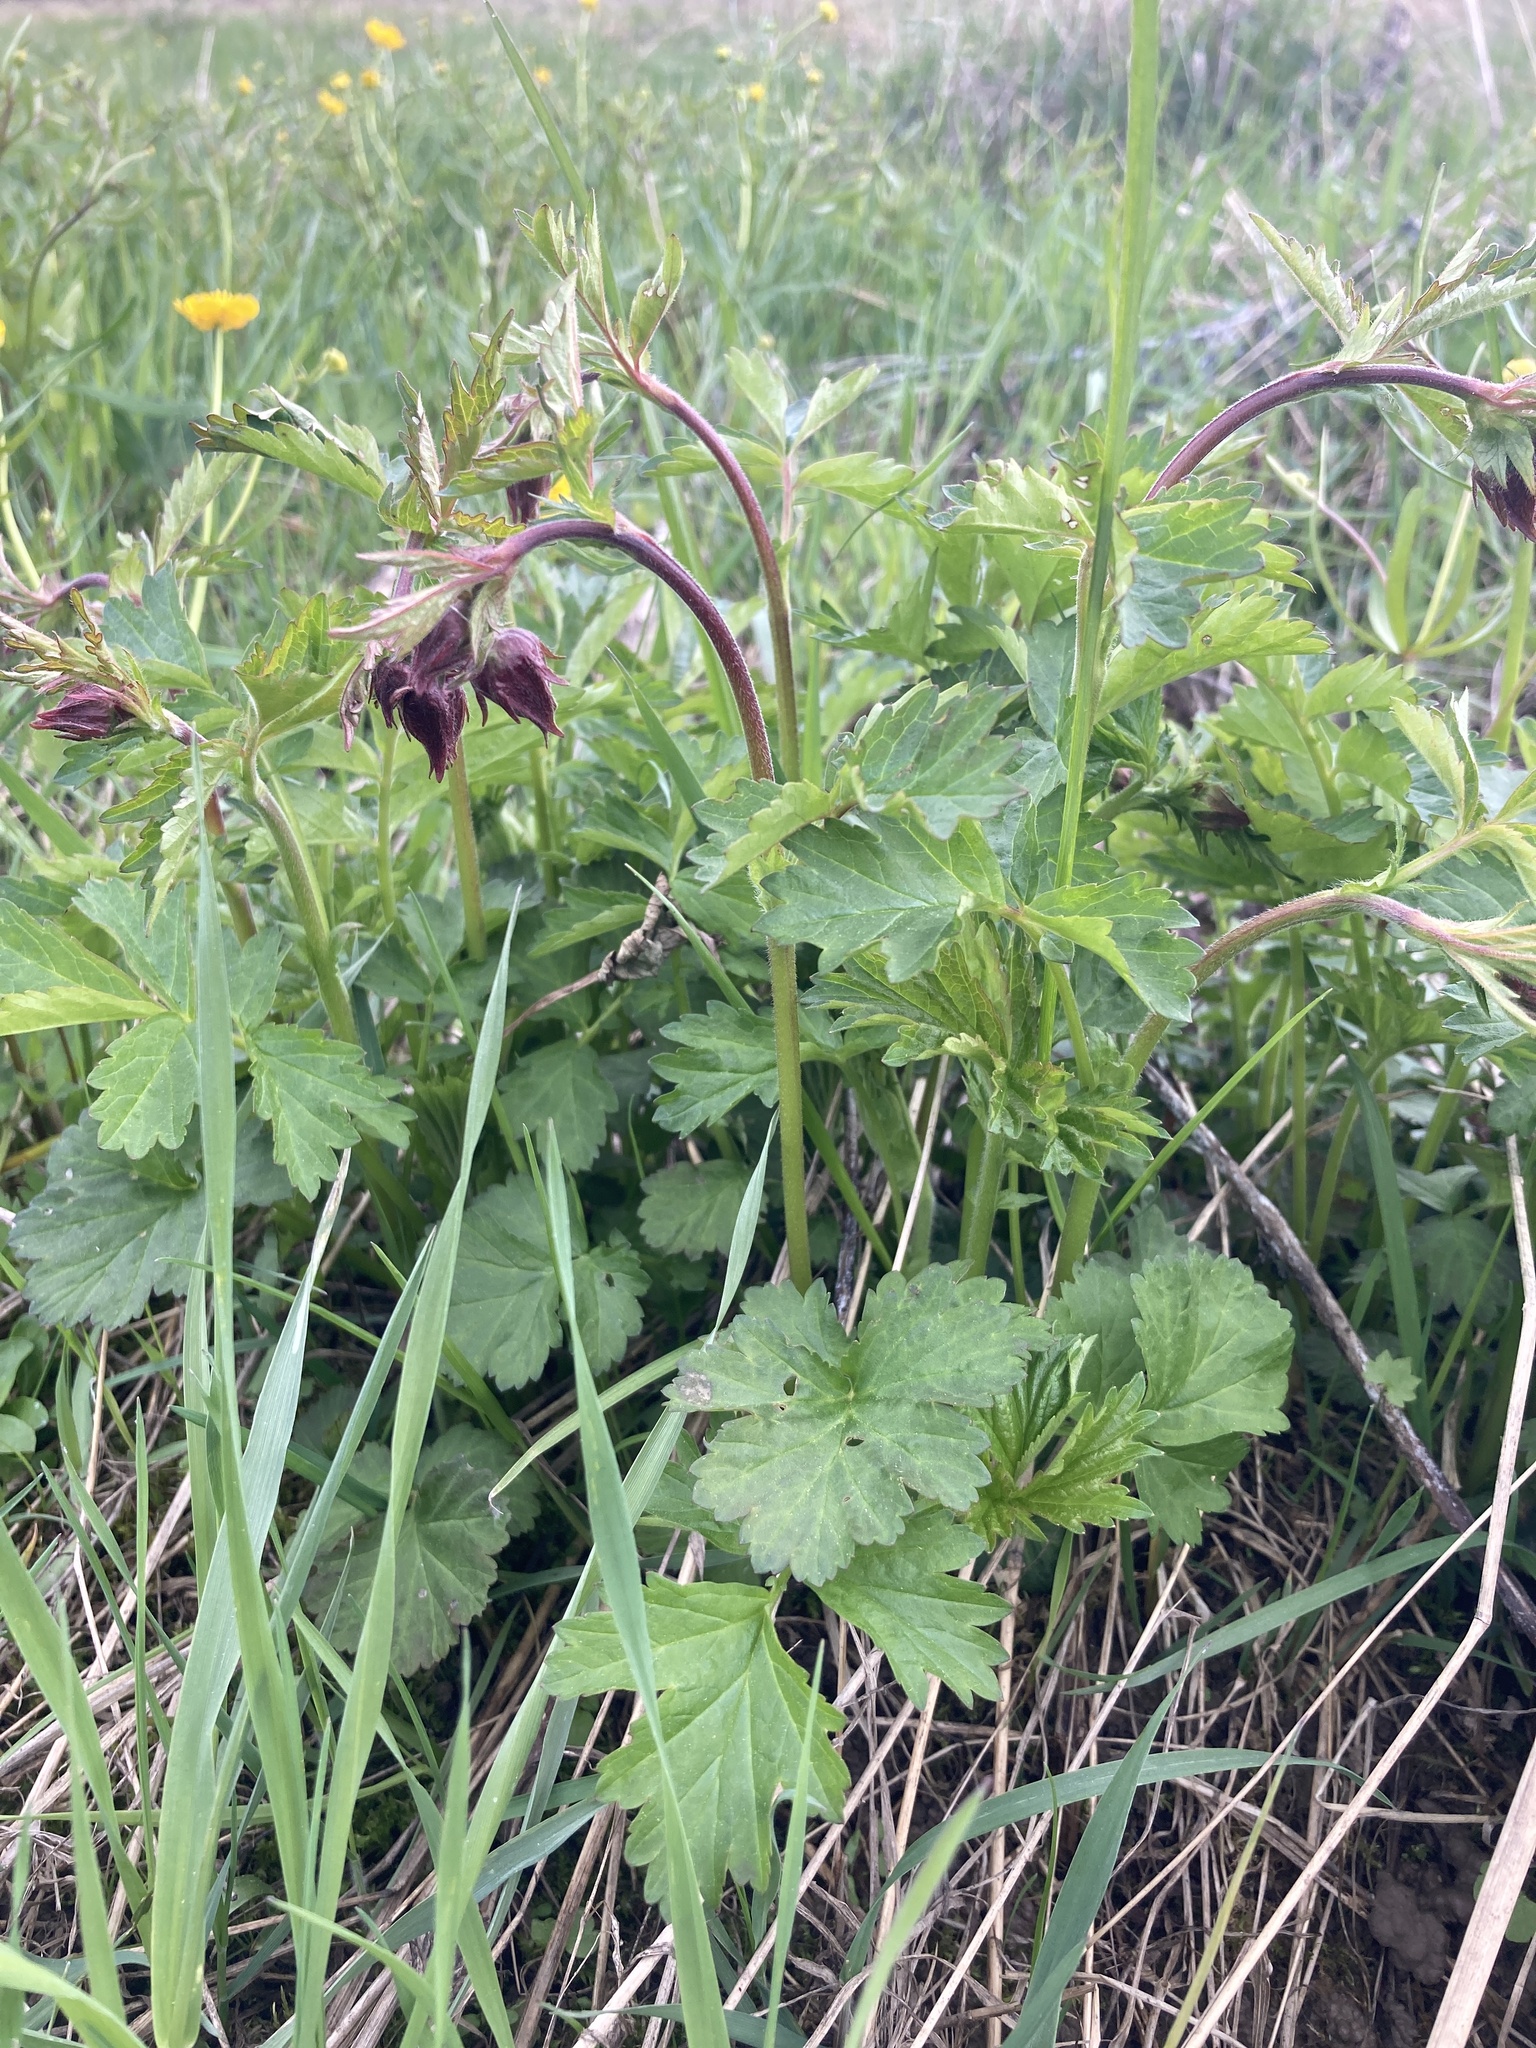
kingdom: Plantae
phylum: Tracheophyta
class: Magnoliopsida
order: Rosales
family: Rosaceae
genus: Geum
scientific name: Geum rivale
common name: Water avens
